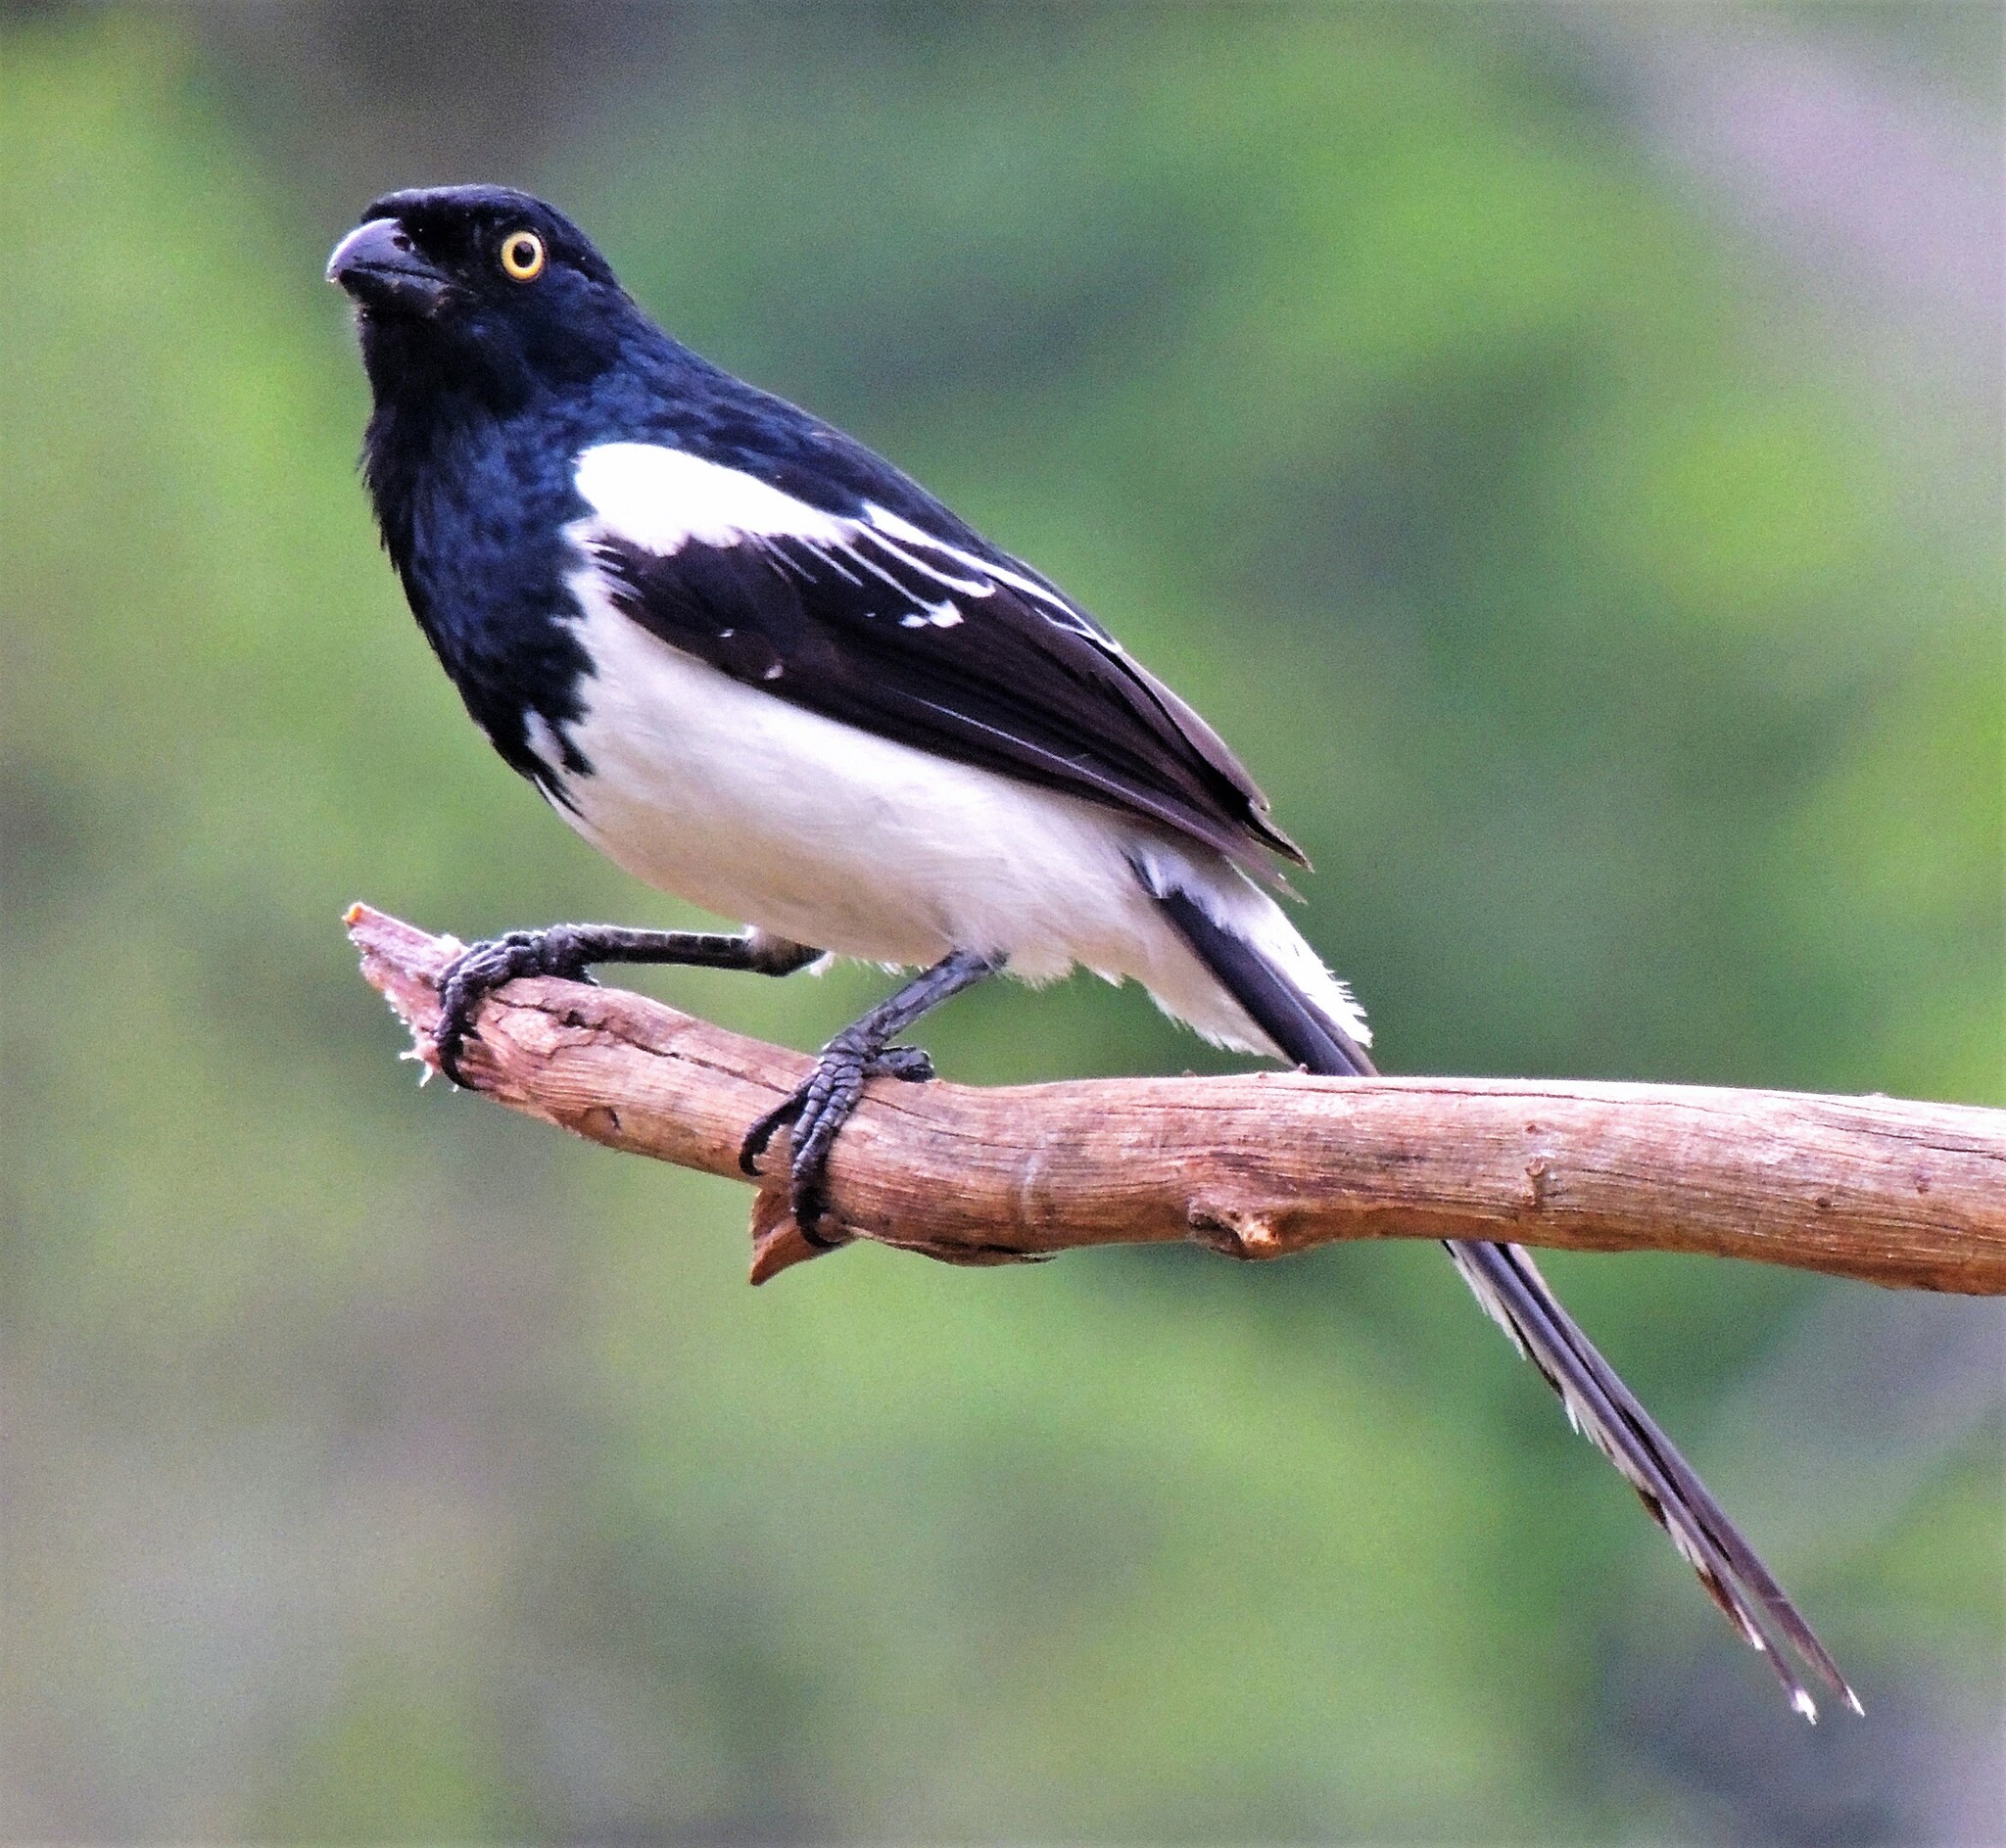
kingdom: Animalia
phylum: Chordata
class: Aves
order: Passeriformes
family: Thraupidae
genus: Cissopis
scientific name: Cissopis leverianus
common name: Magpie tanager
